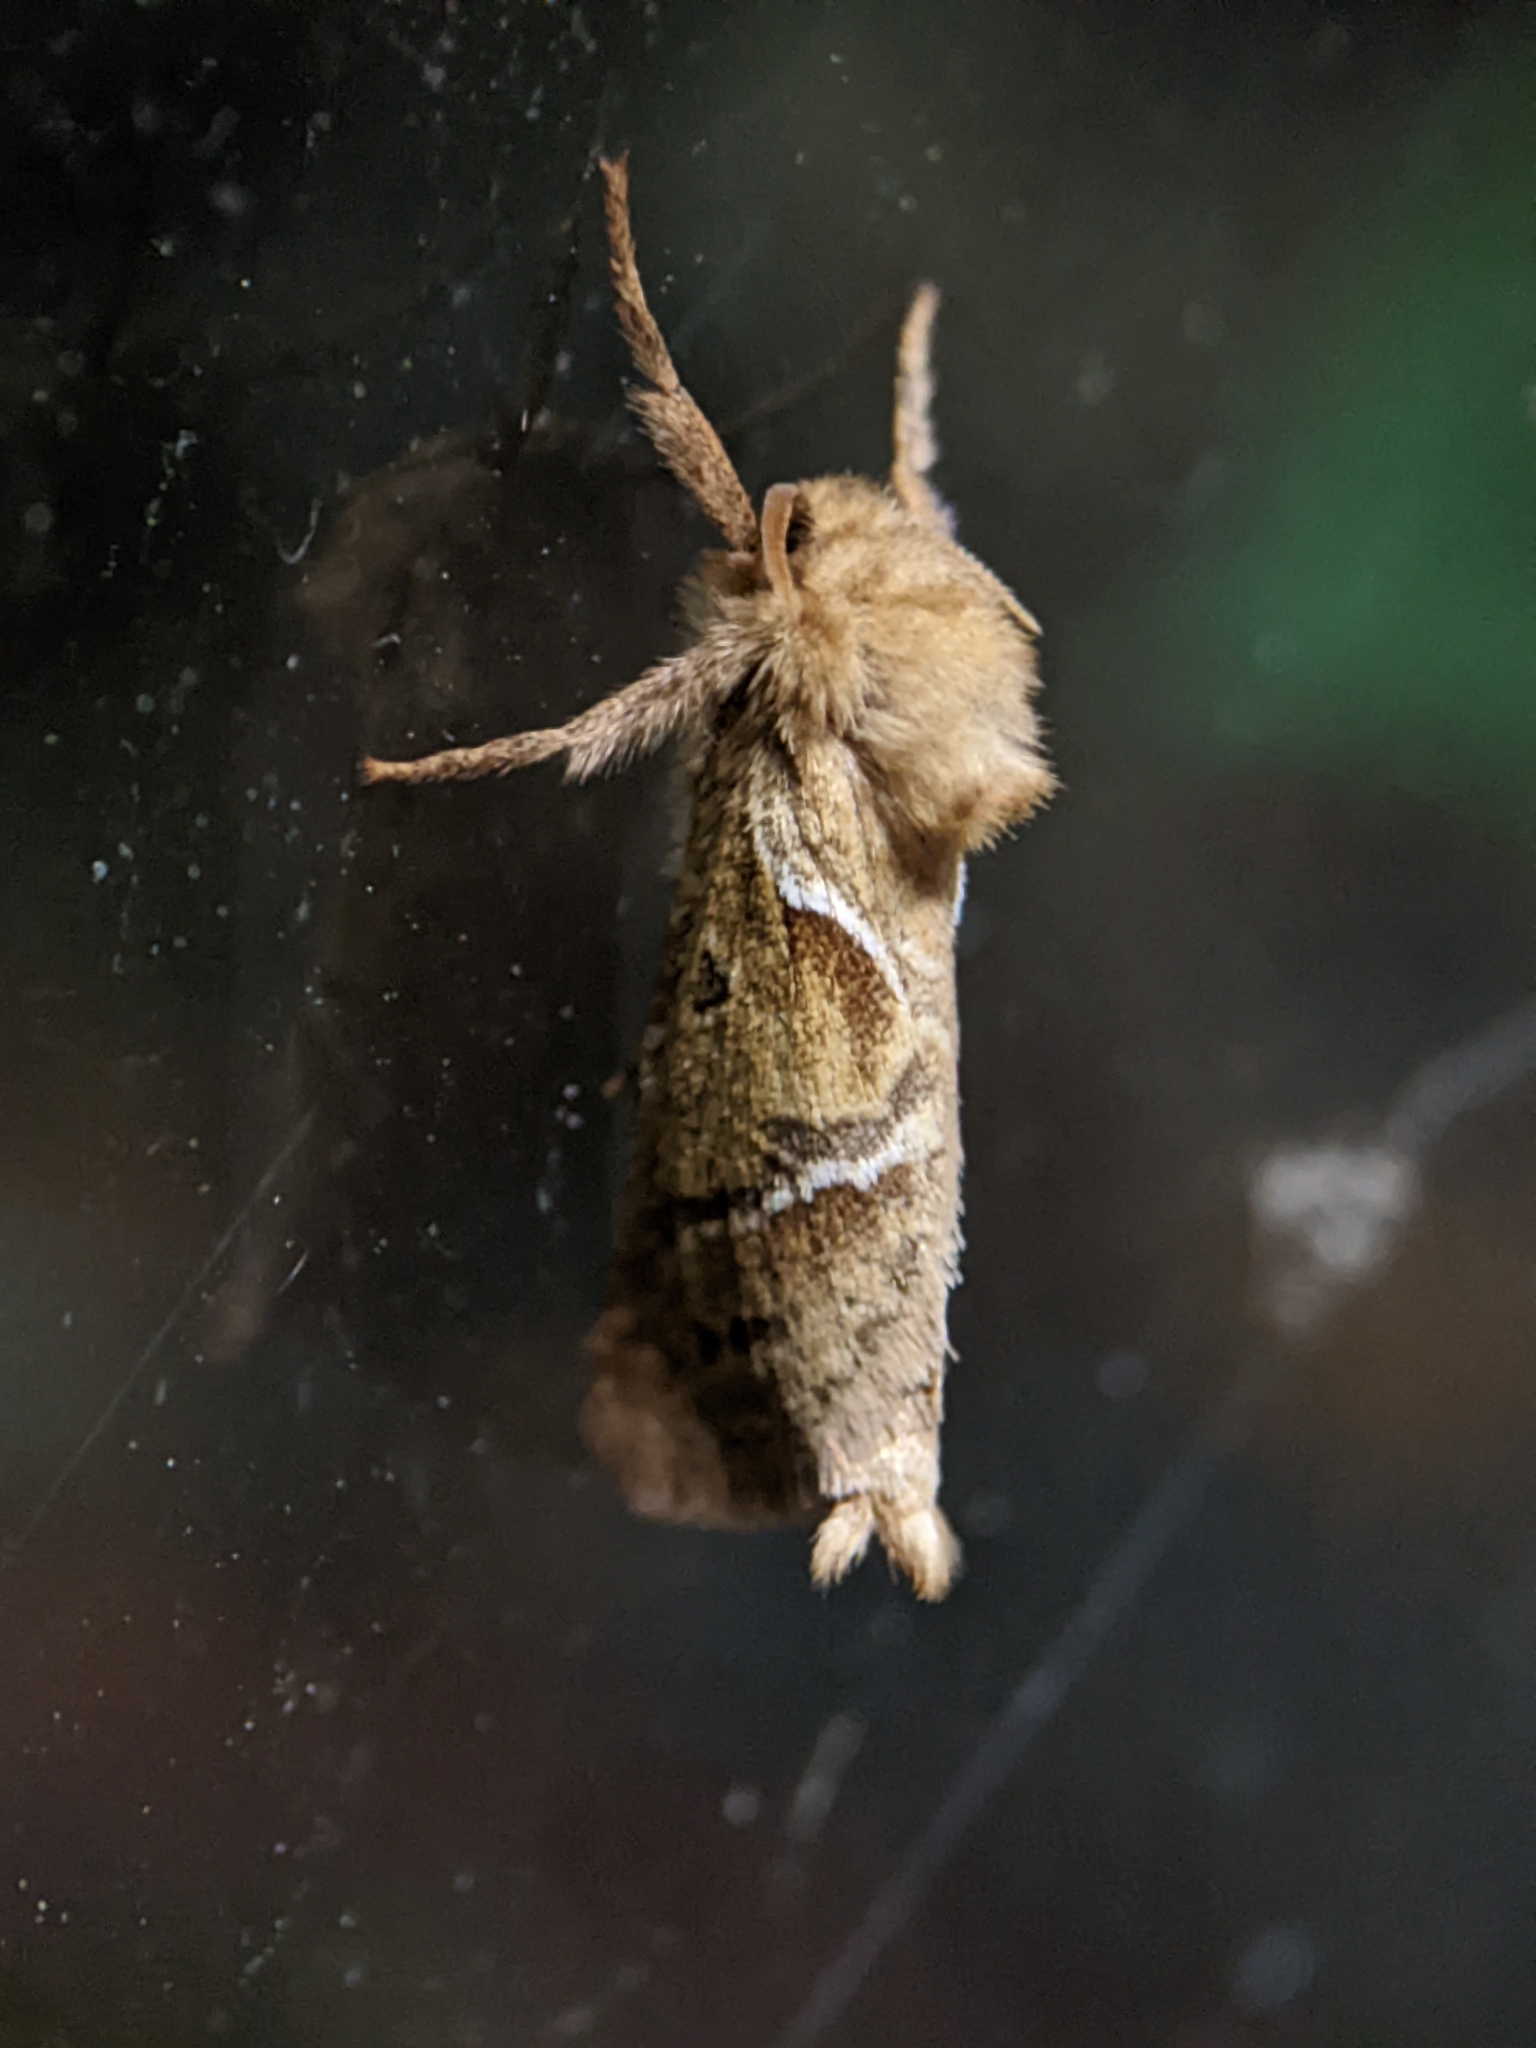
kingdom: Animalia
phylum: Arthropoda
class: Insecta
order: Lepidoptera
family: Hepialidae
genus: Triodia
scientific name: Triodia sylvina
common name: Orange swift
